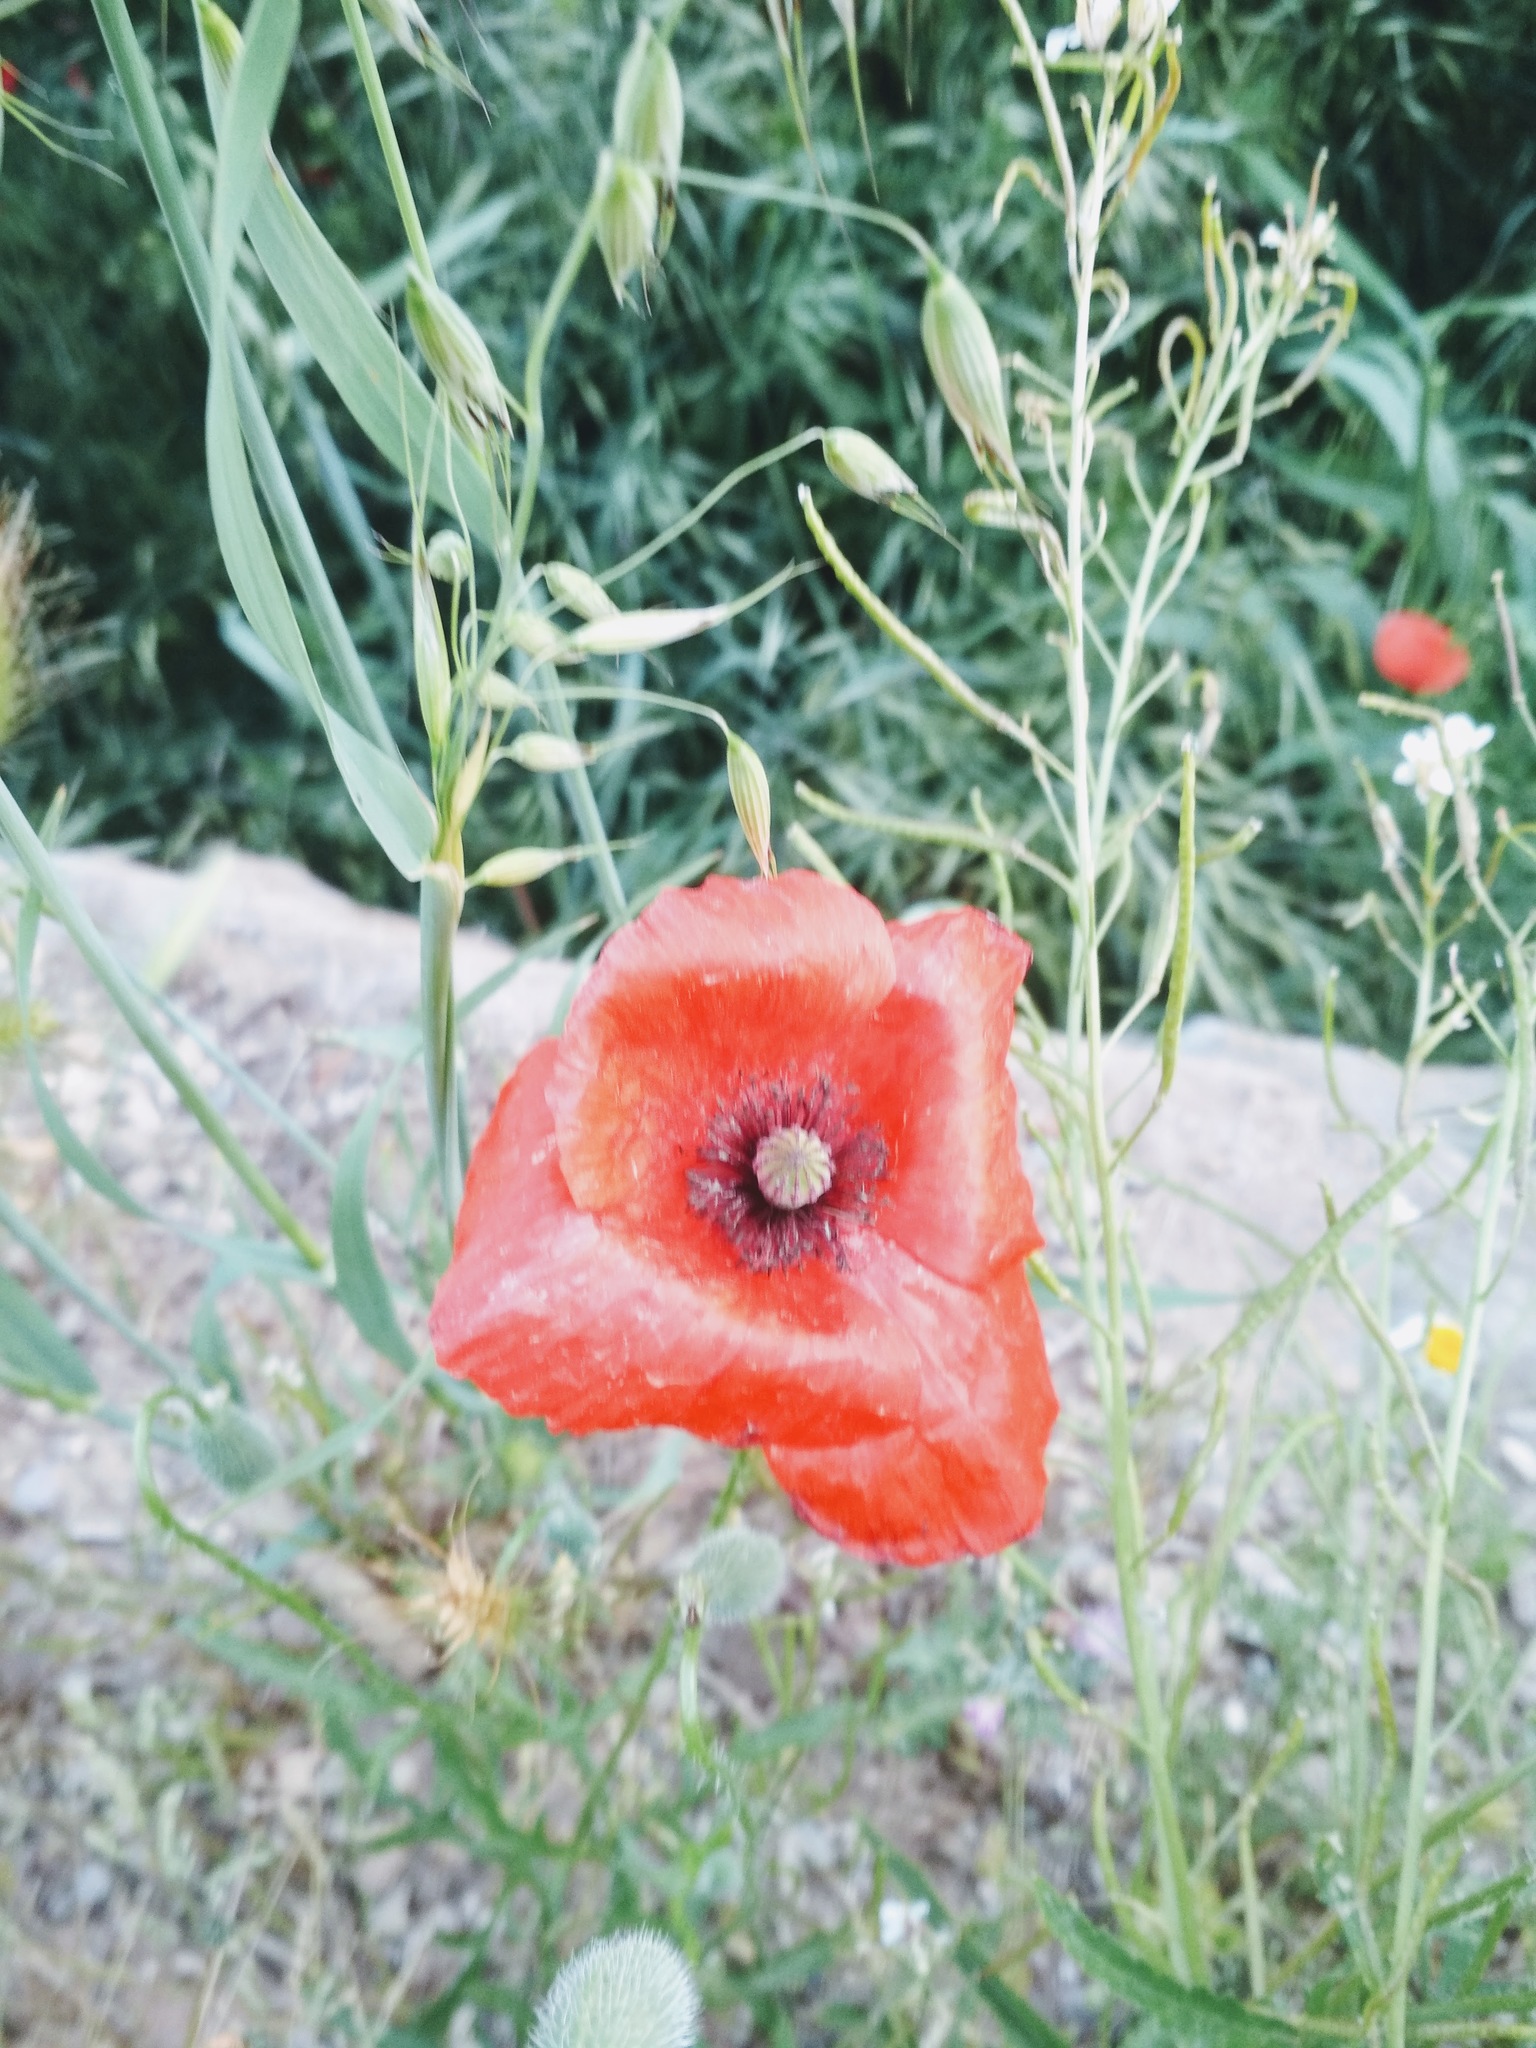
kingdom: Plantae
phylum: Tracheophyta
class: Magnoliopsida
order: Ranunculales
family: Papaveraceae
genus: Papaver
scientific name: Papaver rhoeas
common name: Corn poppy
